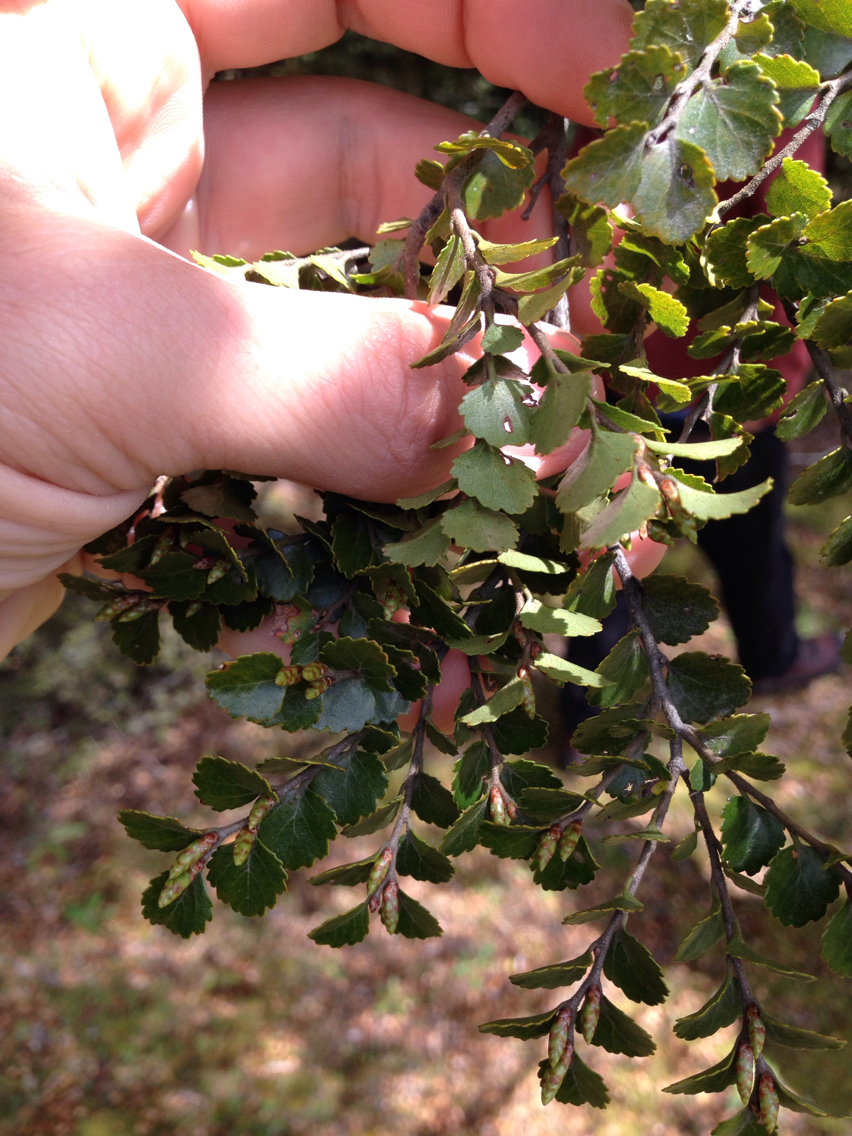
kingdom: Plantae
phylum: Tracheophyta
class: Magnoliopsida
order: Fagales
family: Nothofagaceae
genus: Nothofagus
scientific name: Nothofagus menziesii
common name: Silver beech
